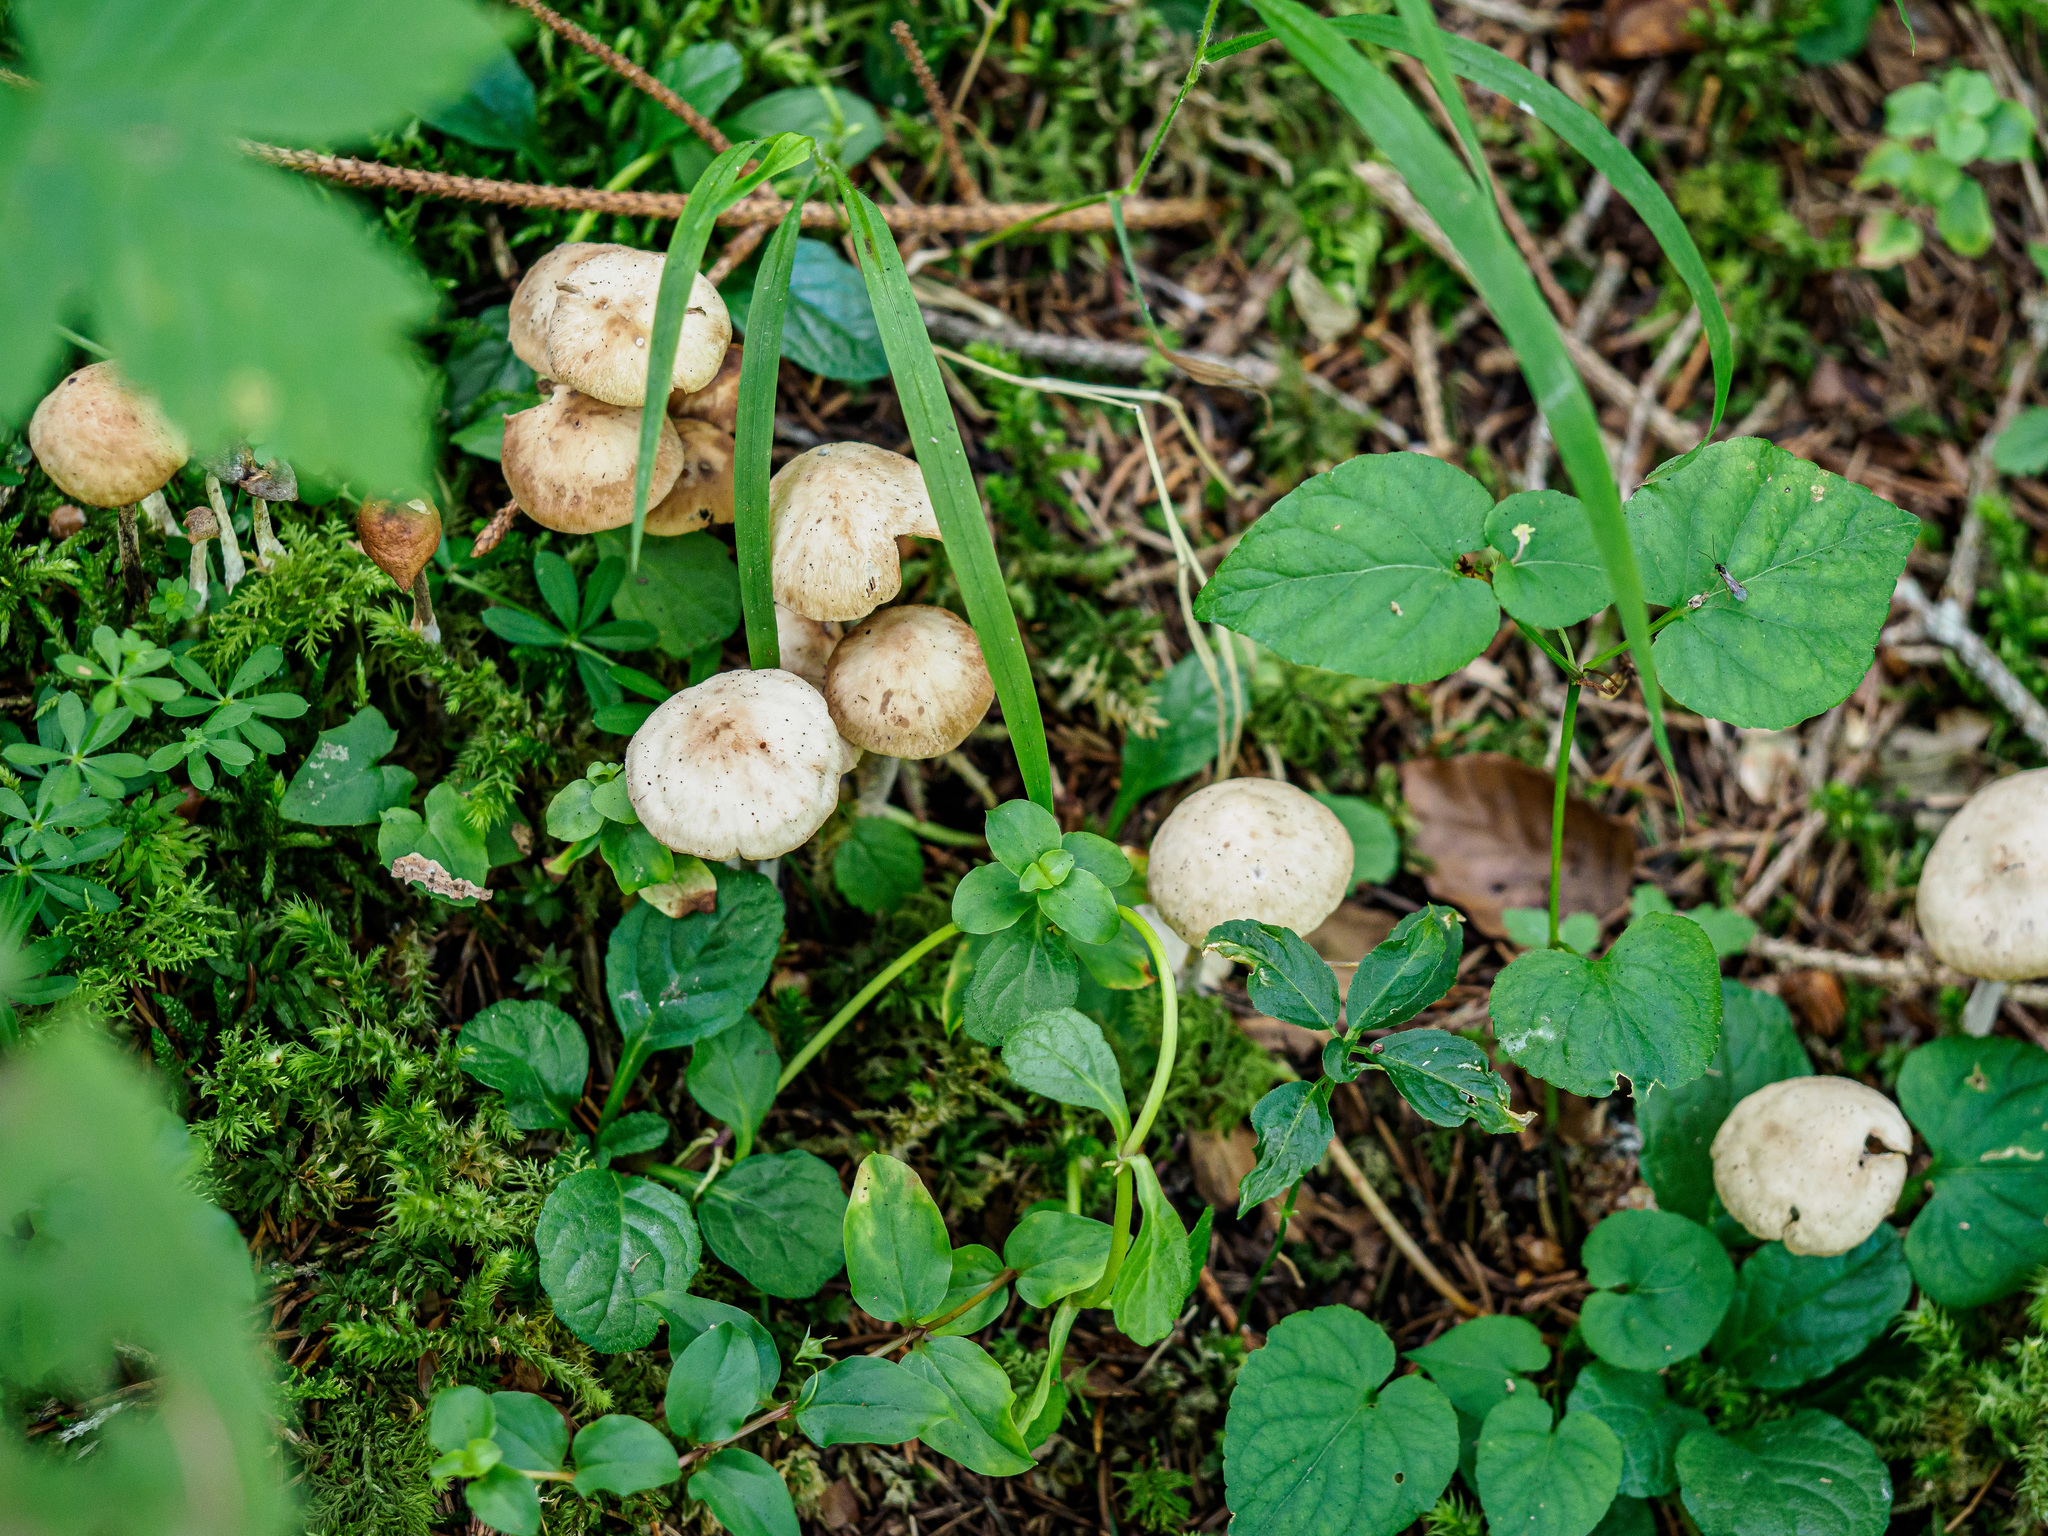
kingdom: Fungi
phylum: Basidiomycota
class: Agaricomycetes
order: Agaricales
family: Omphalotaceae
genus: Collybiopsis
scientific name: Collybiopsis confluens
